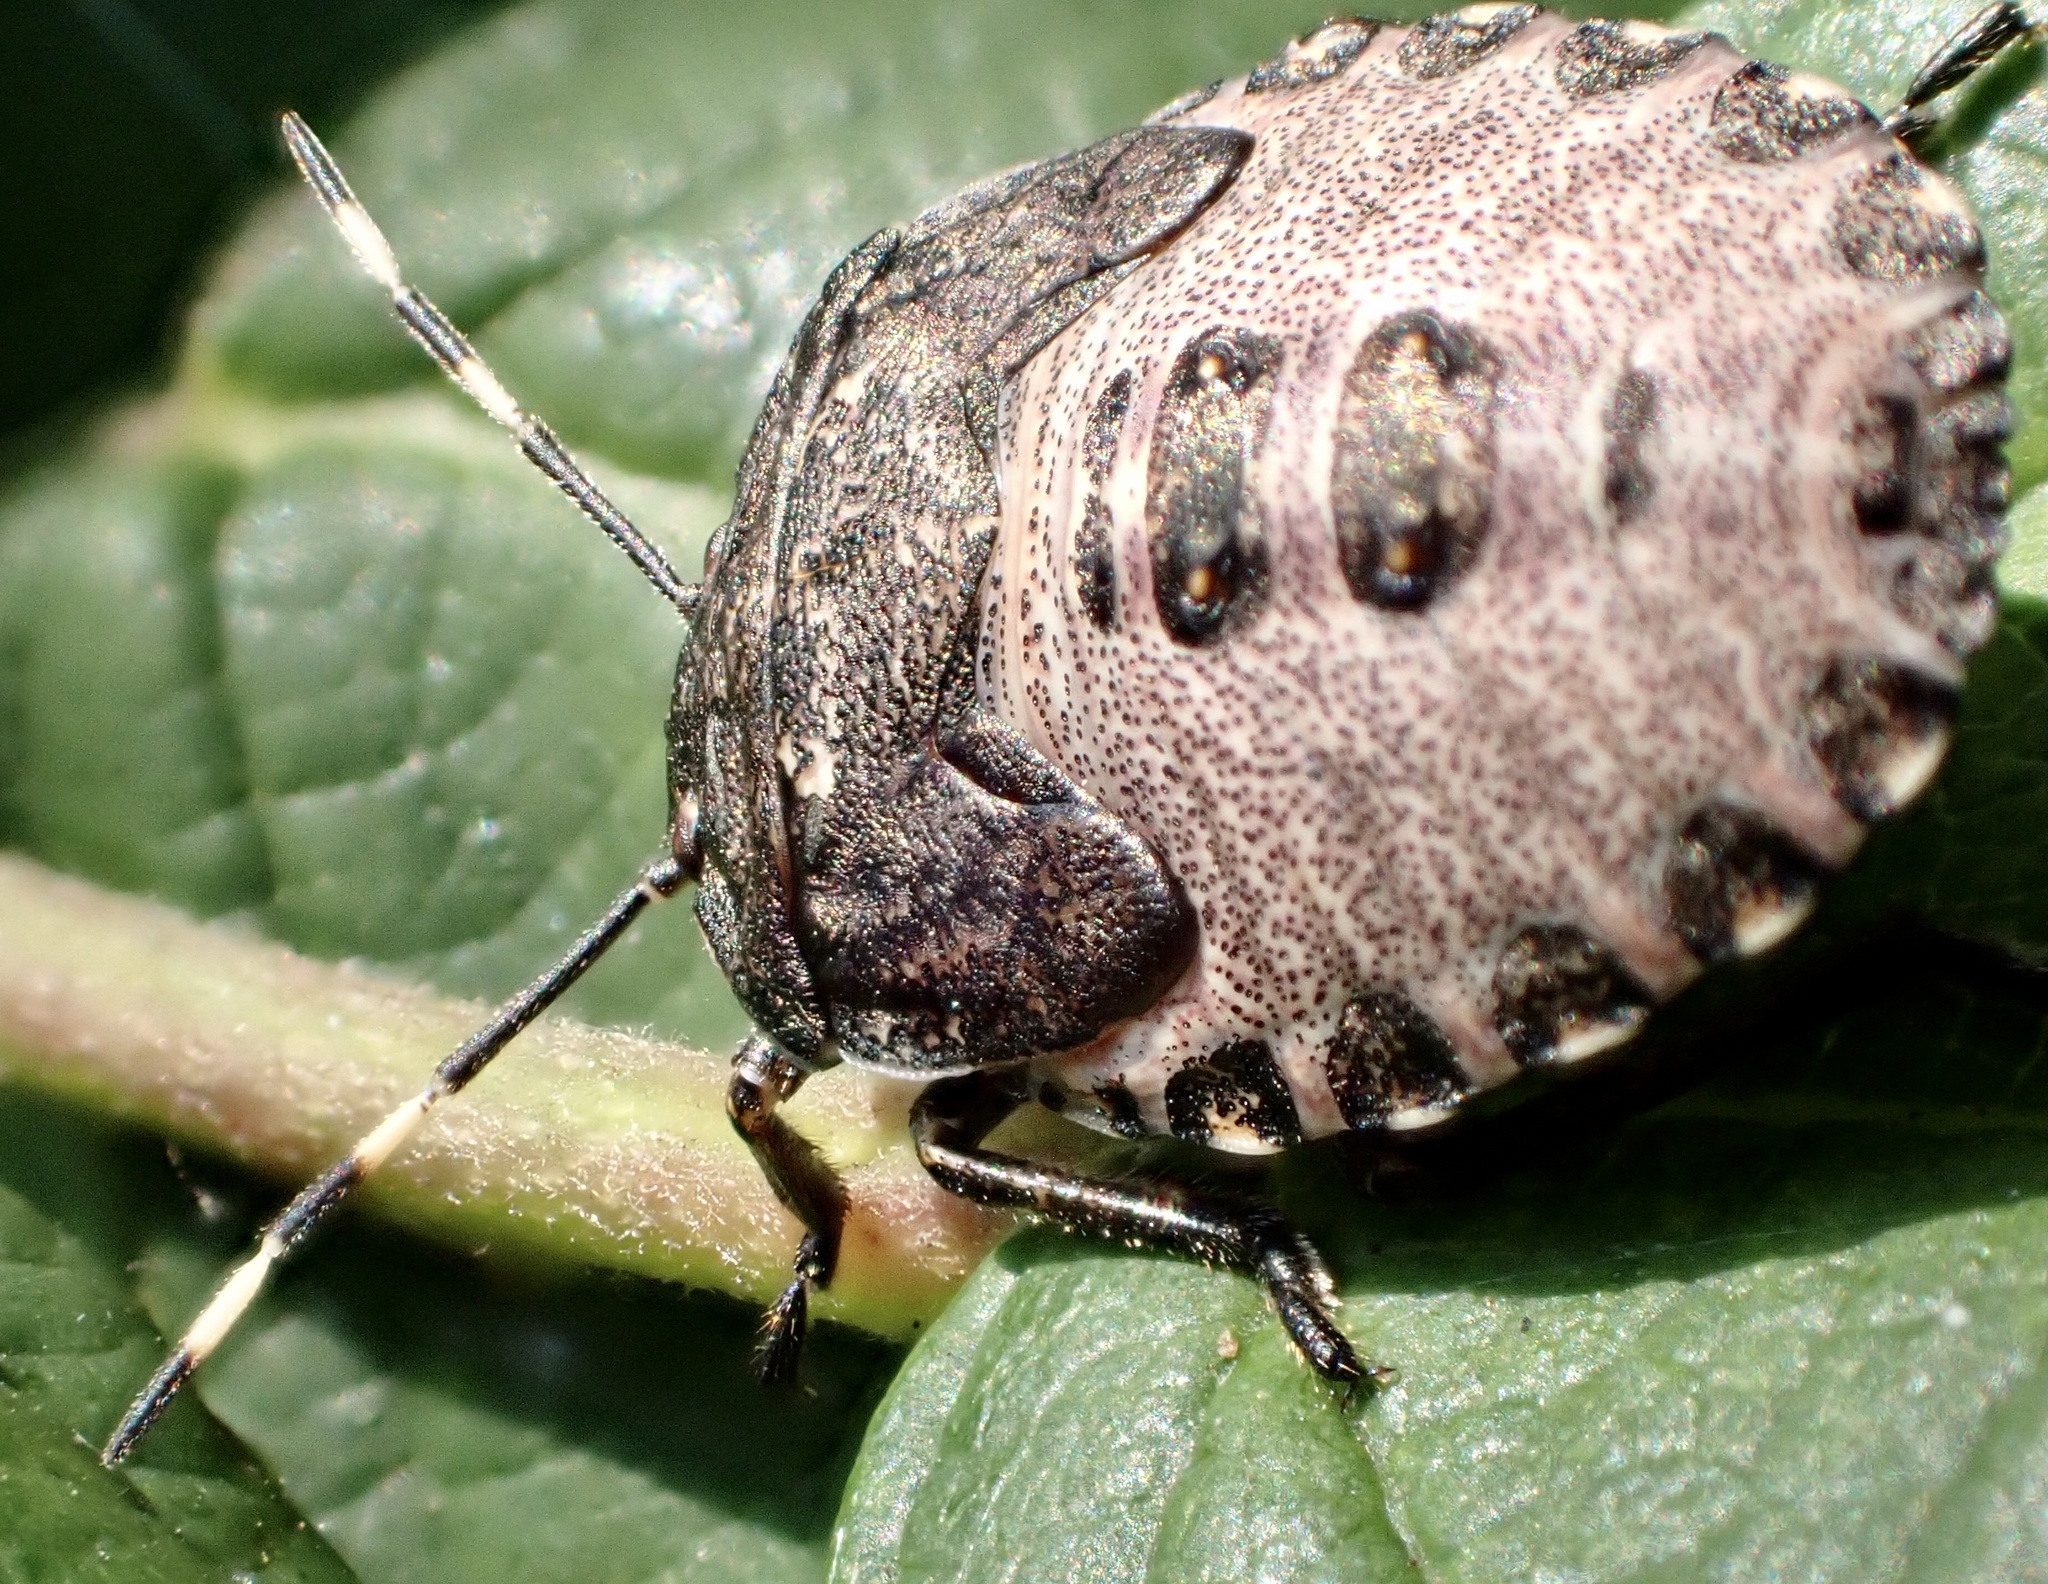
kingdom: Animalia
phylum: Arthropoda
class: Insecta
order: Hemiptera
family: Pentatomidae
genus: Rhaphigaster
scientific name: Rhaphigaster nebulosa
